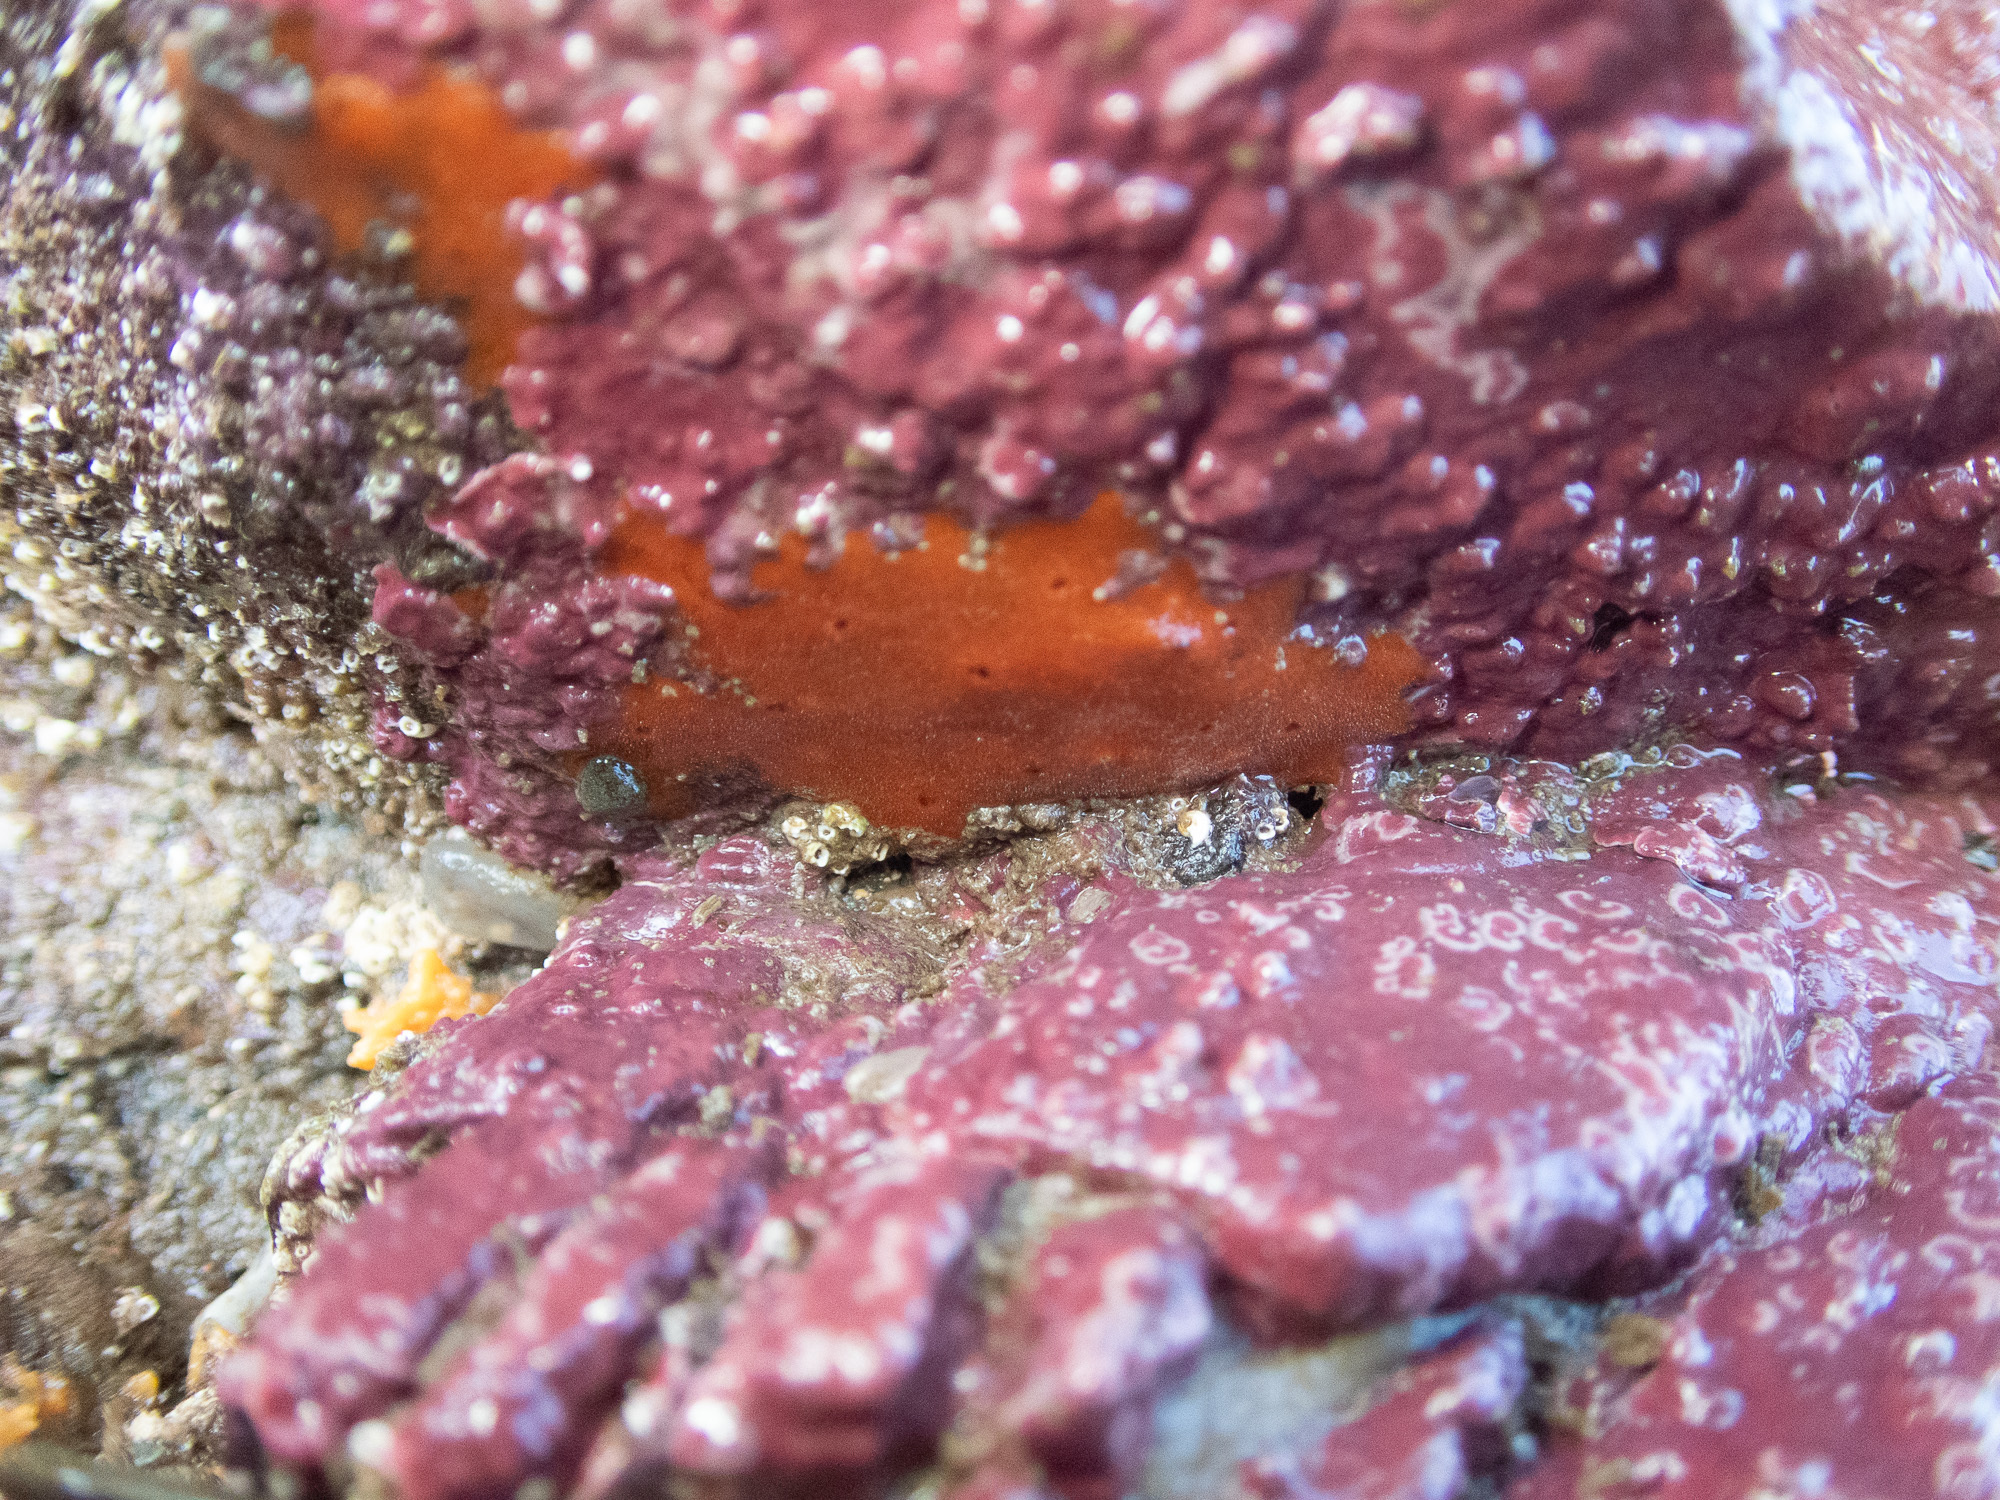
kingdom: Animalia
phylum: Porifera
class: Demospongiae
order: Poecilosclerida
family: Microcionidae
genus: Ophlitaspongia
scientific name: Ophlitaspongia papilla
